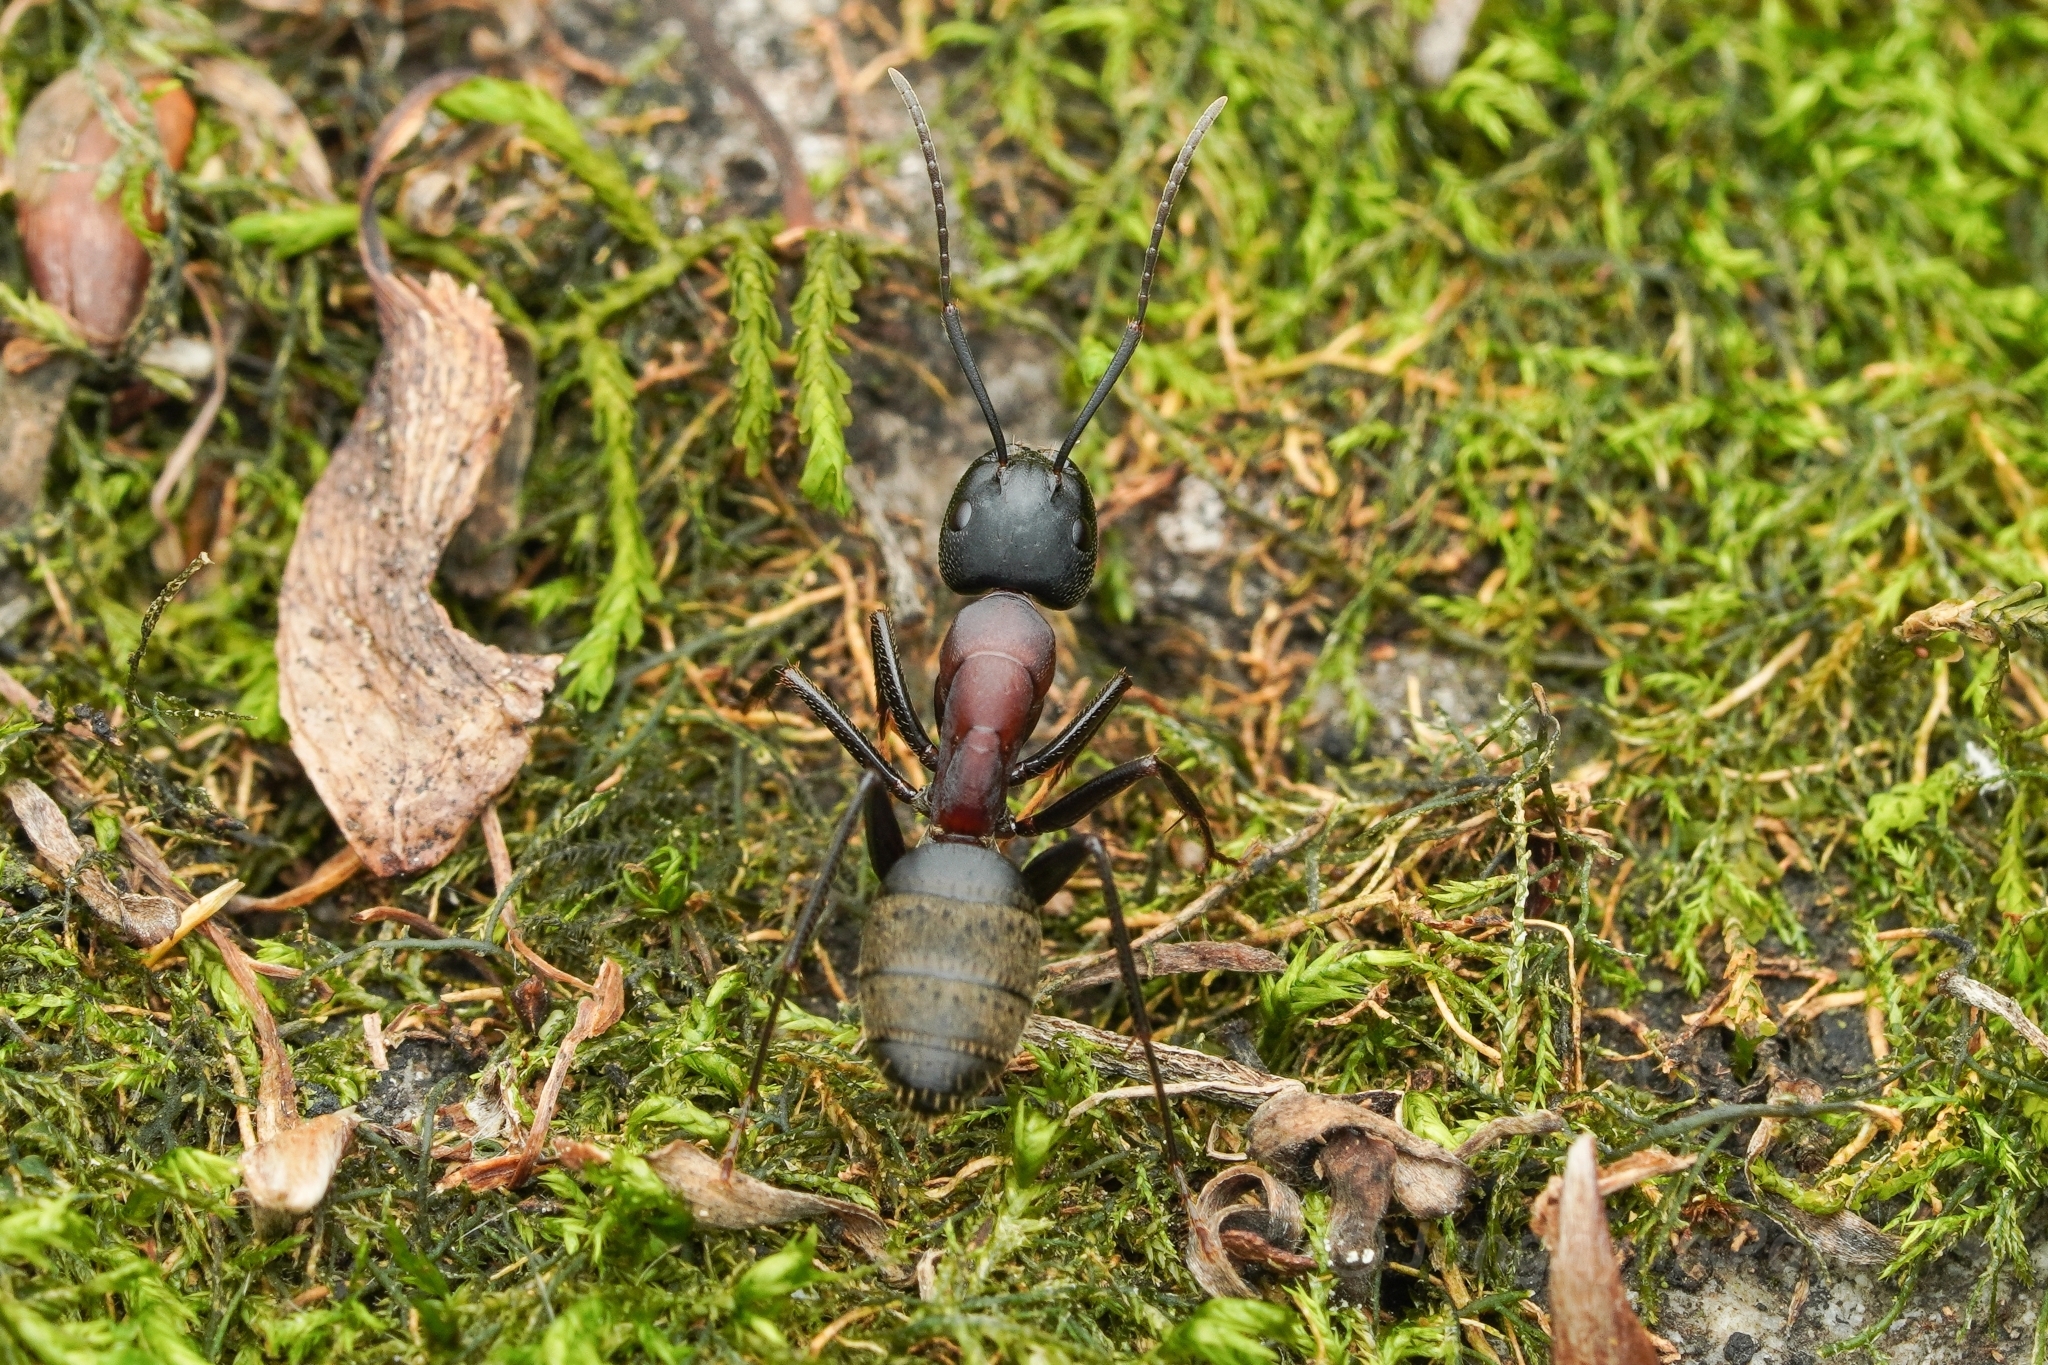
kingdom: Animalia
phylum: Arthropoda
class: Insecta
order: Hymenoptera
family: Formicidae
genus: Camponotus
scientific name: Camponotus atrox
